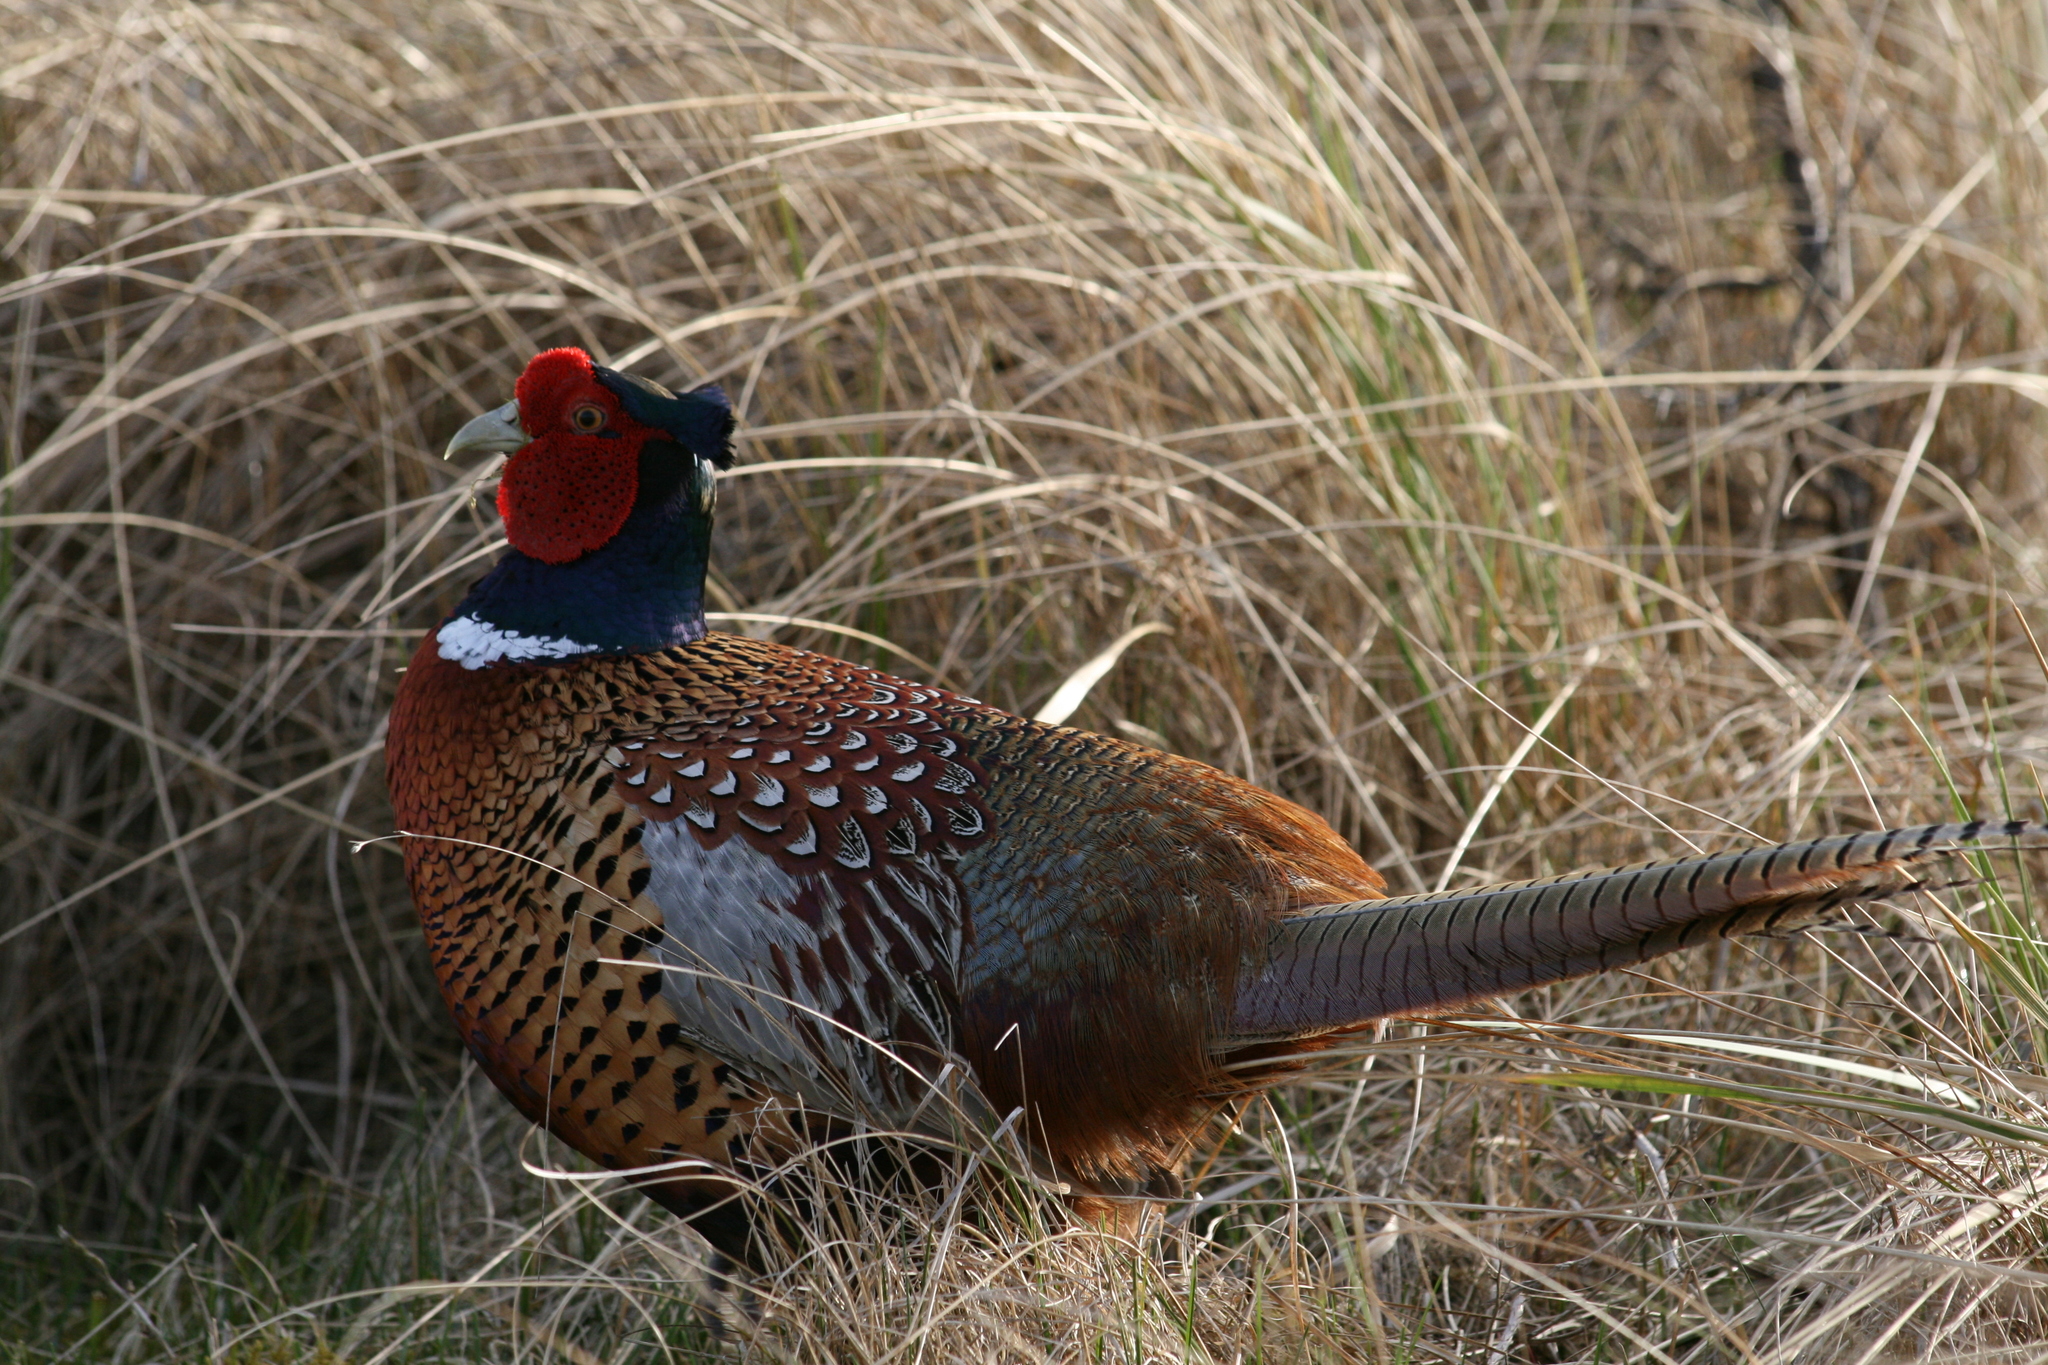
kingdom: Animalia
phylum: Chordata
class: Aves
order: Galliformes
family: Phasianidae
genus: Phasianus
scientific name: Phasianus colchicus
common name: Common pheasant
